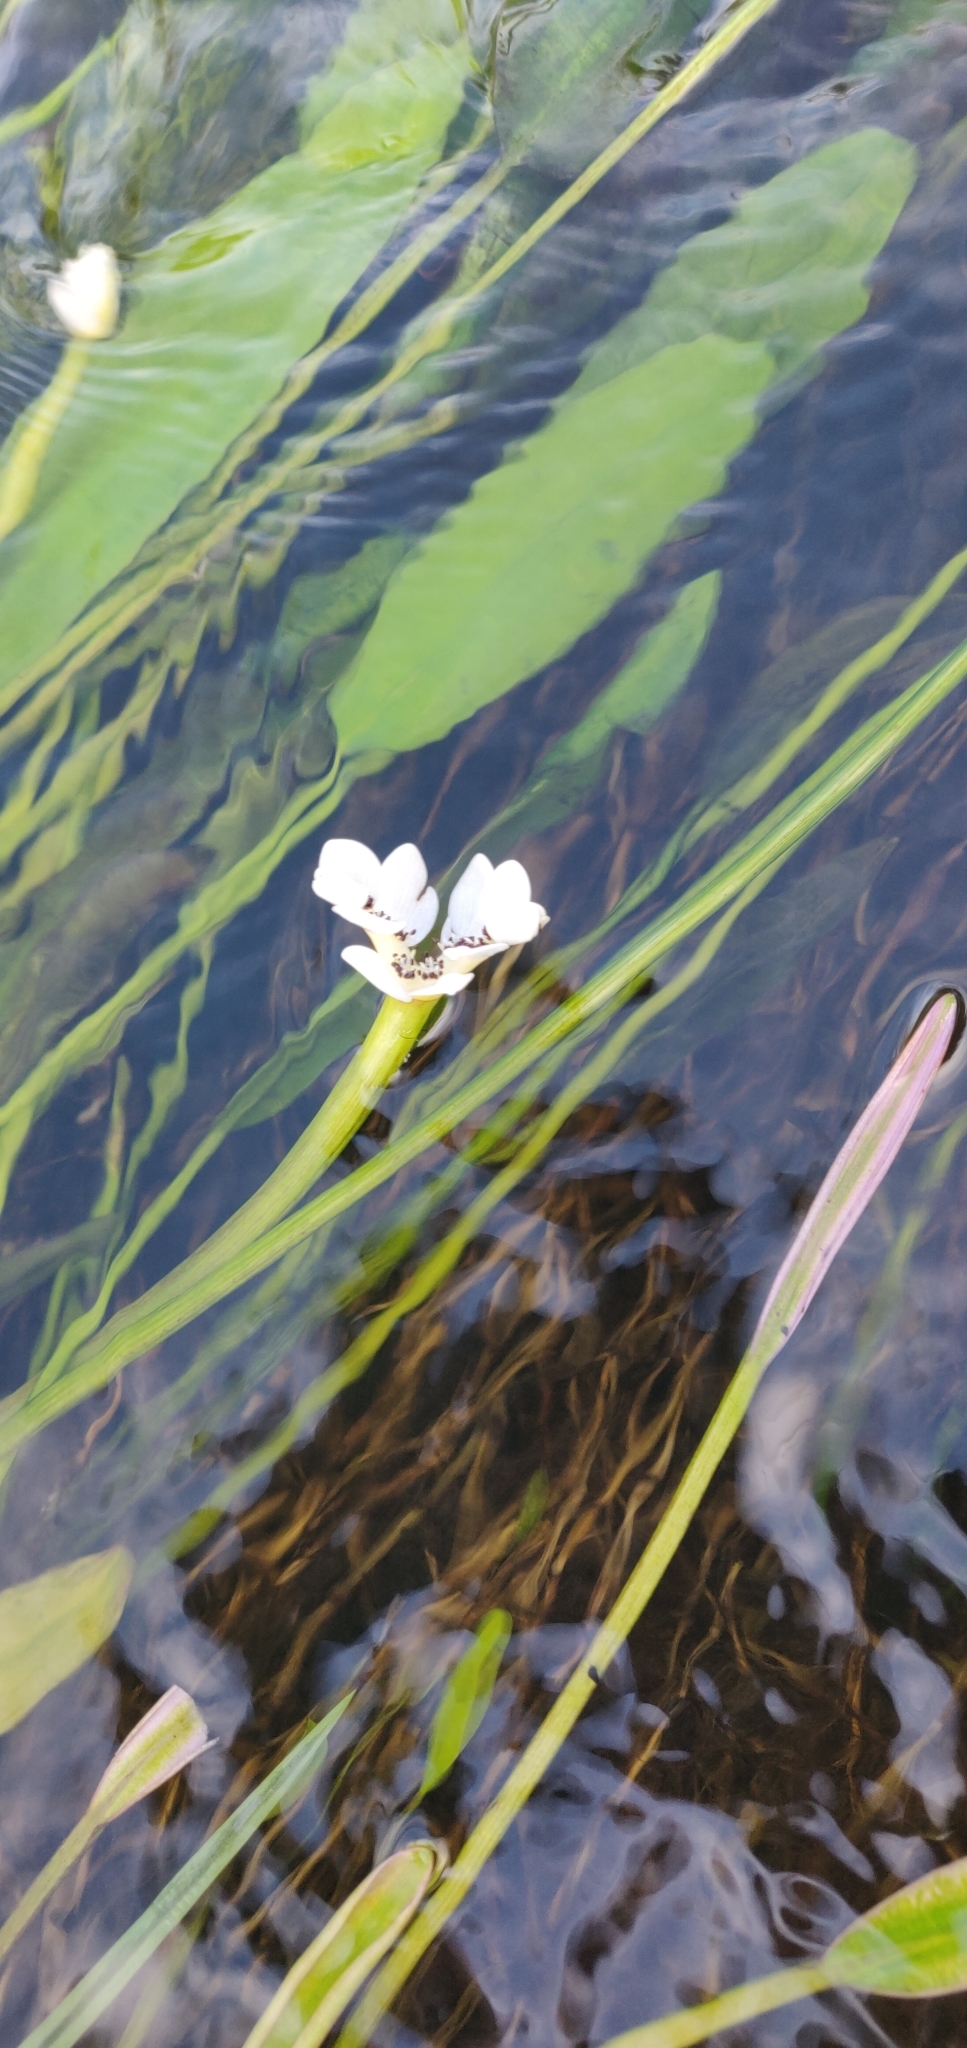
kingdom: Plantae
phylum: Tracheophyta
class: Liliopsida
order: Alismatales
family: Aponogetonaceae
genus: Aponogeton
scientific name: Aponogeton distachyos
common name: Cape-pondweed
